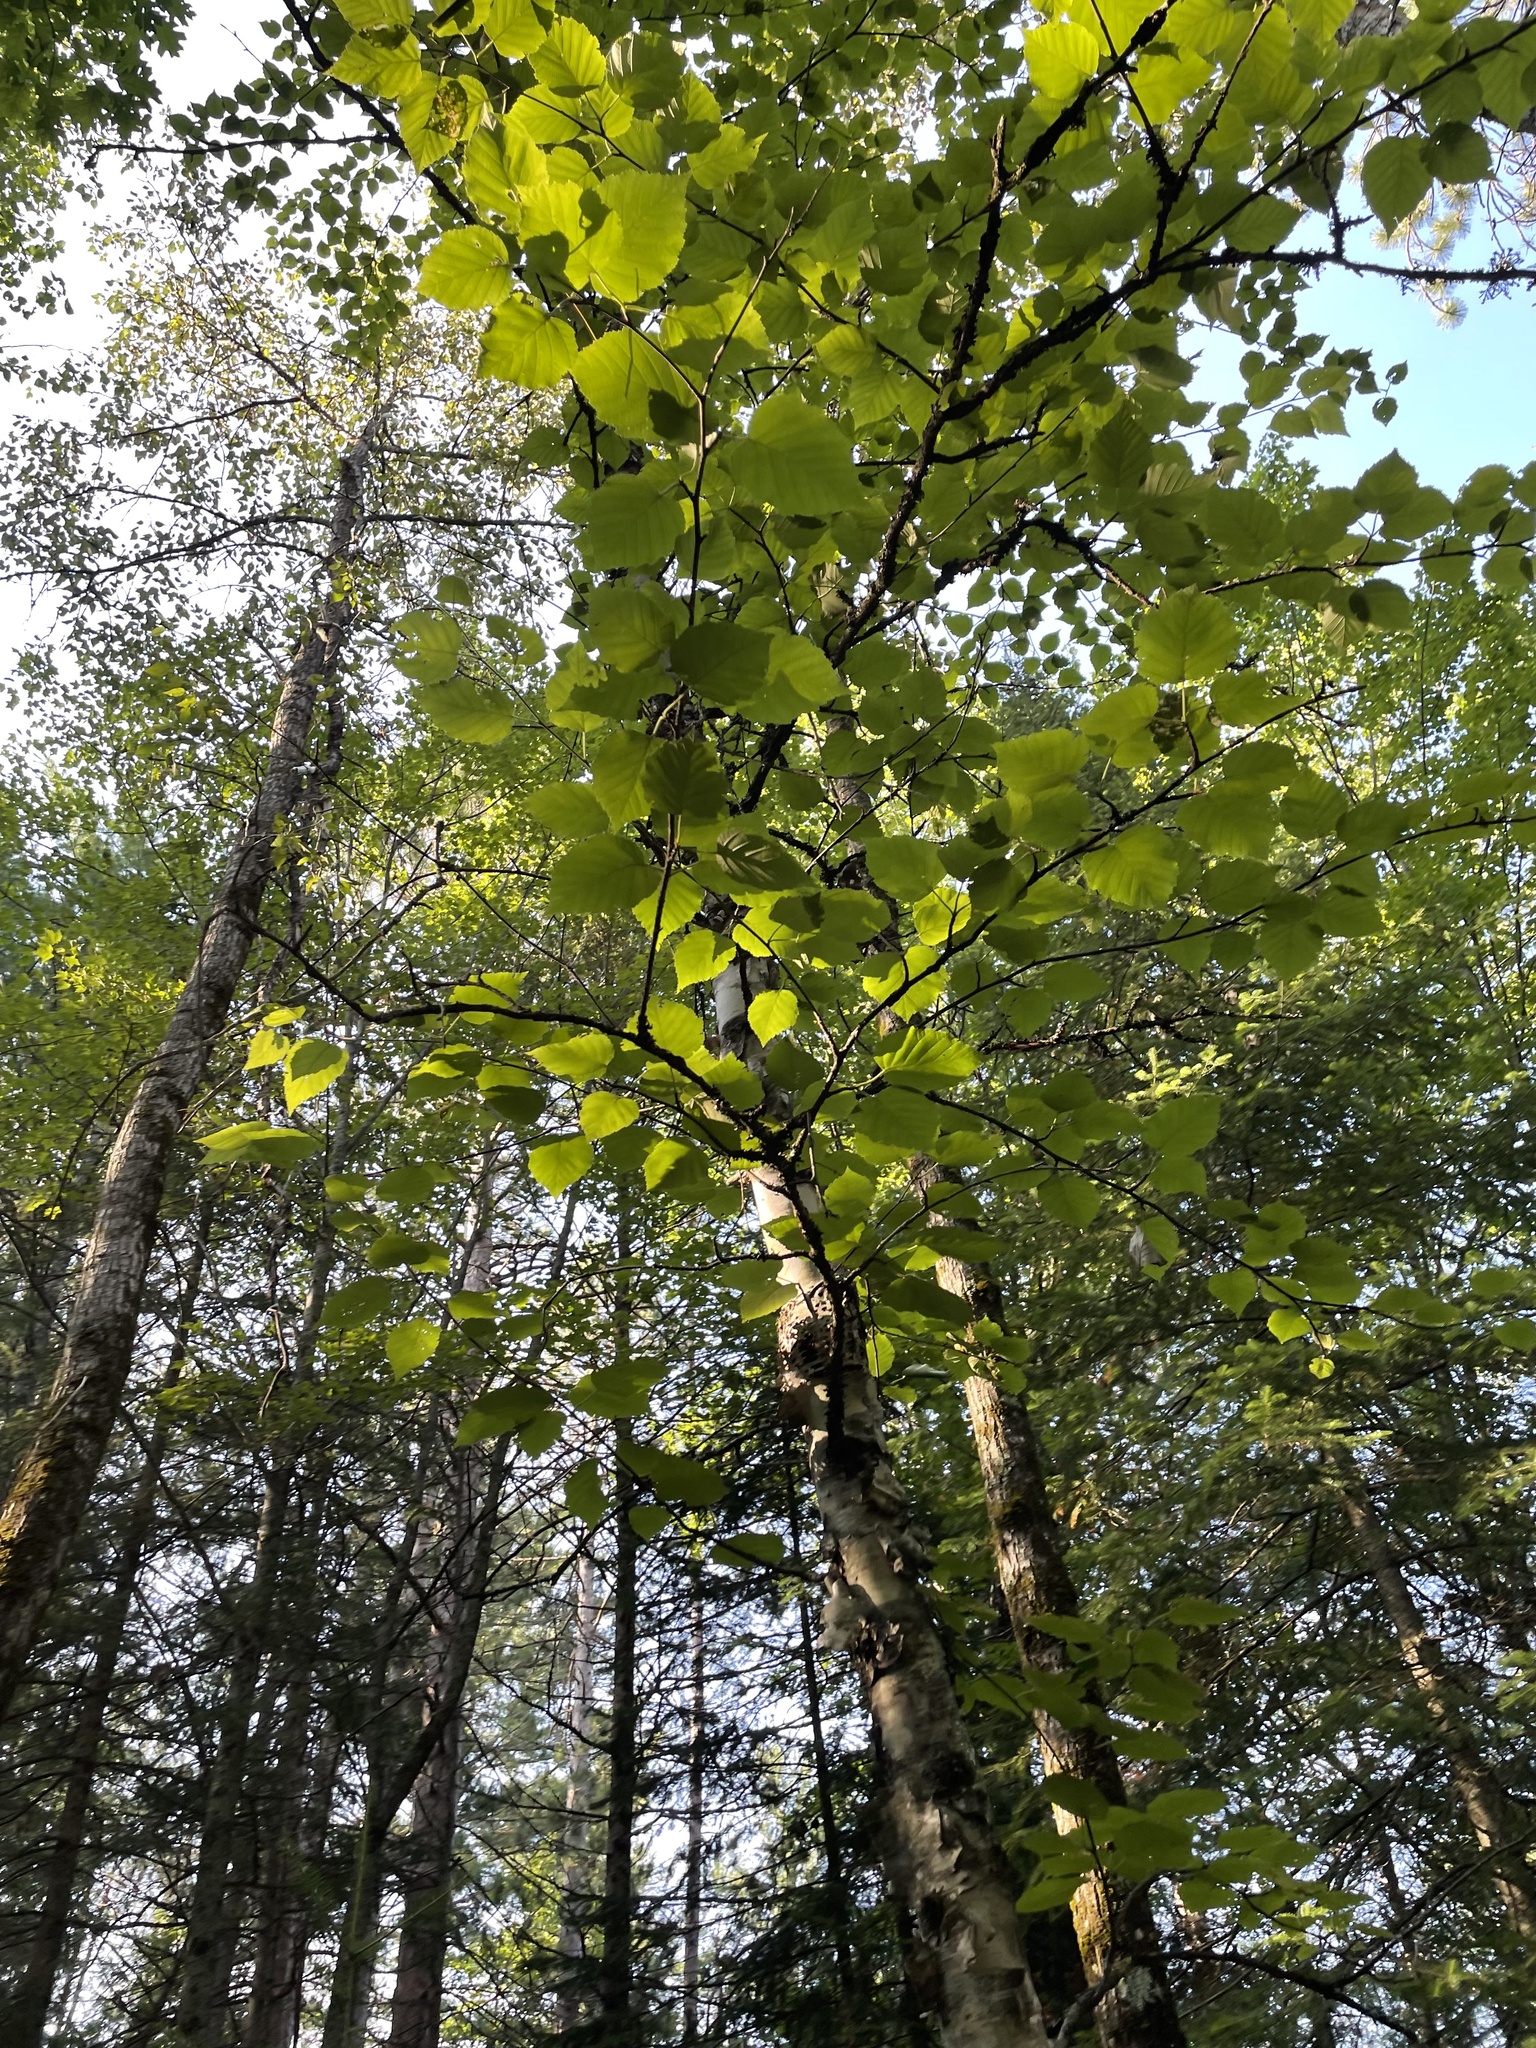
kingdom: Plantae
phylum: Tracheophyta
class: Magnoliopsida
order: Fagales
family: Betulaceae
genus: Betula
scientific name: Betula papyrifera
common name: Paper birch
